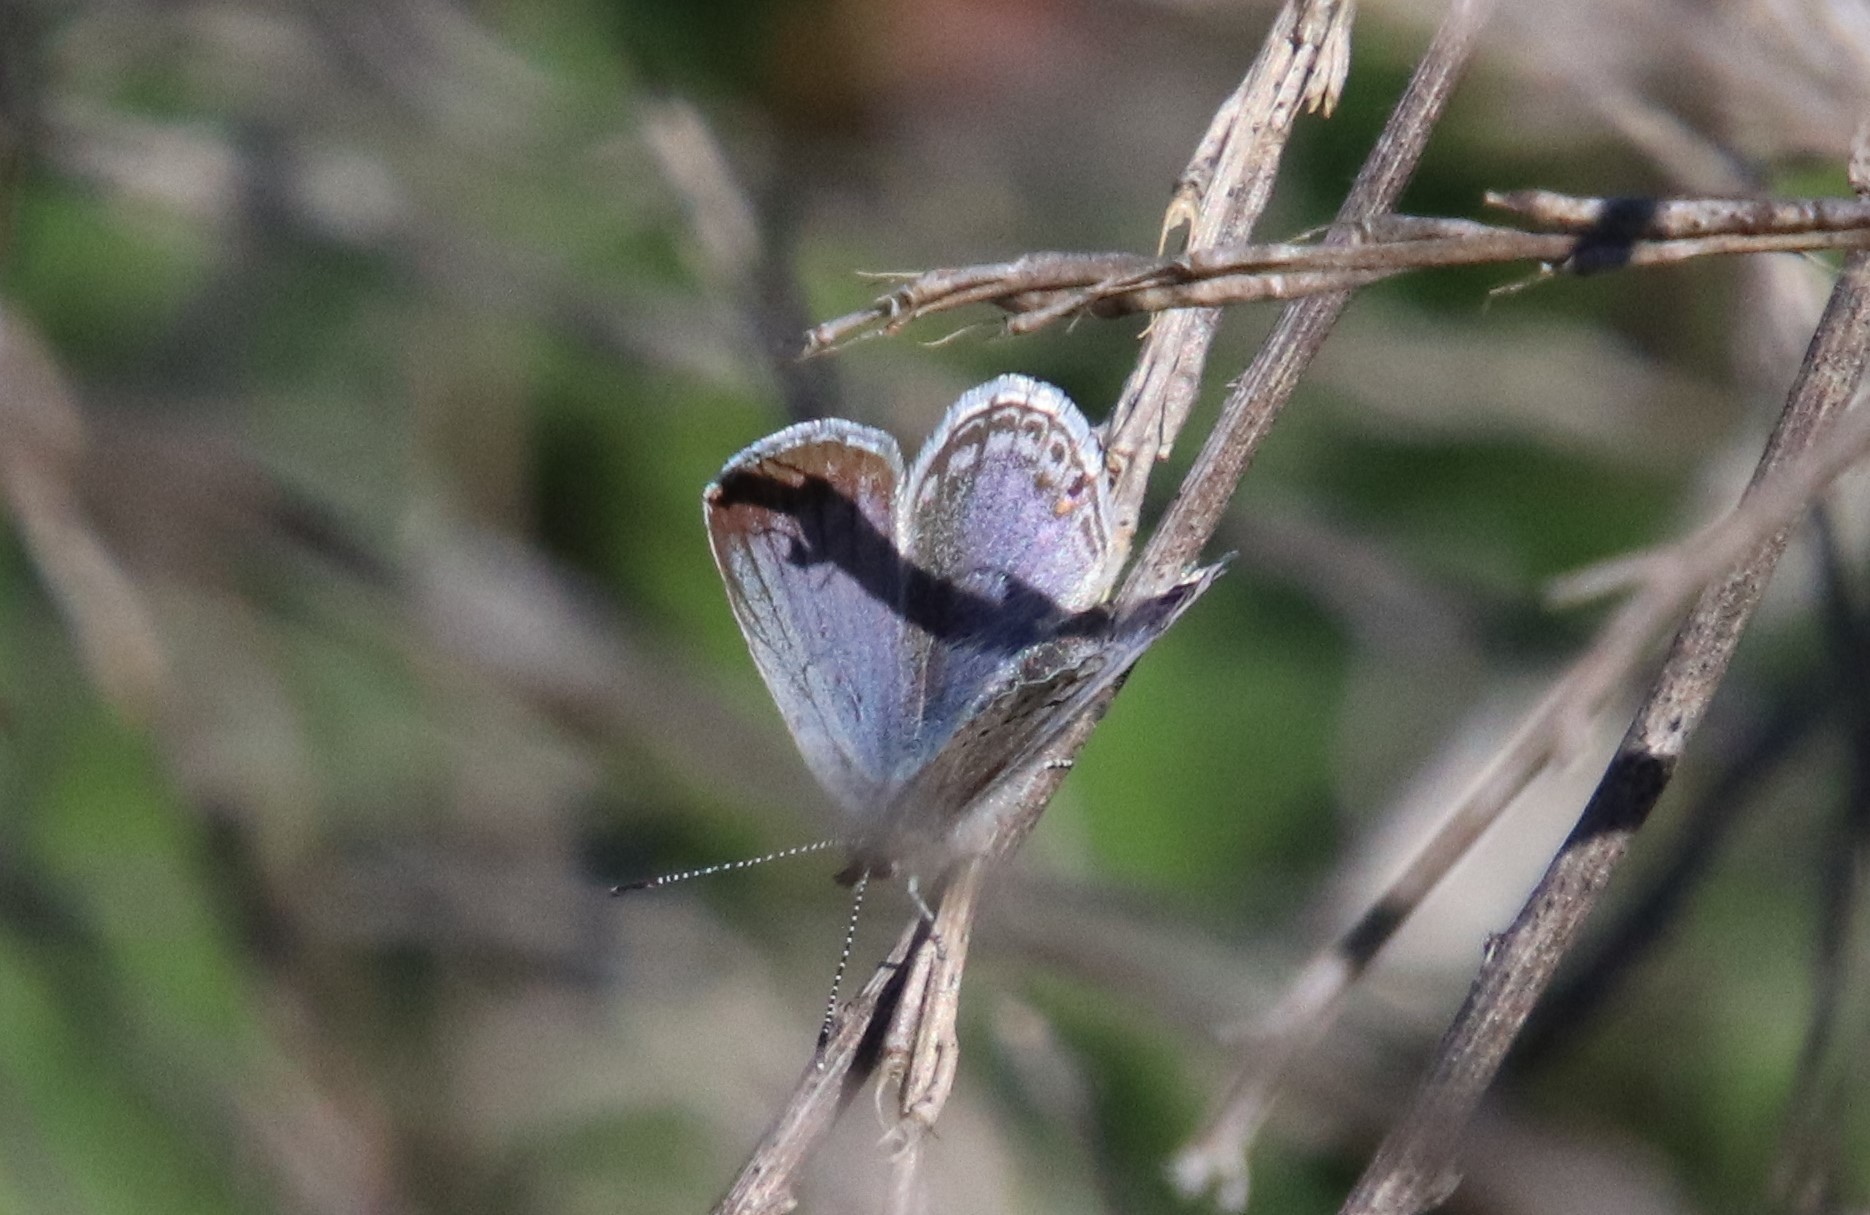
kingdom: Animalia
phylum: Arthropoda
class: Insecta
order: Lepidoptera
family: Lycaenidae
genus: Elkalyce
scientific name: Elkalyce amyntula
